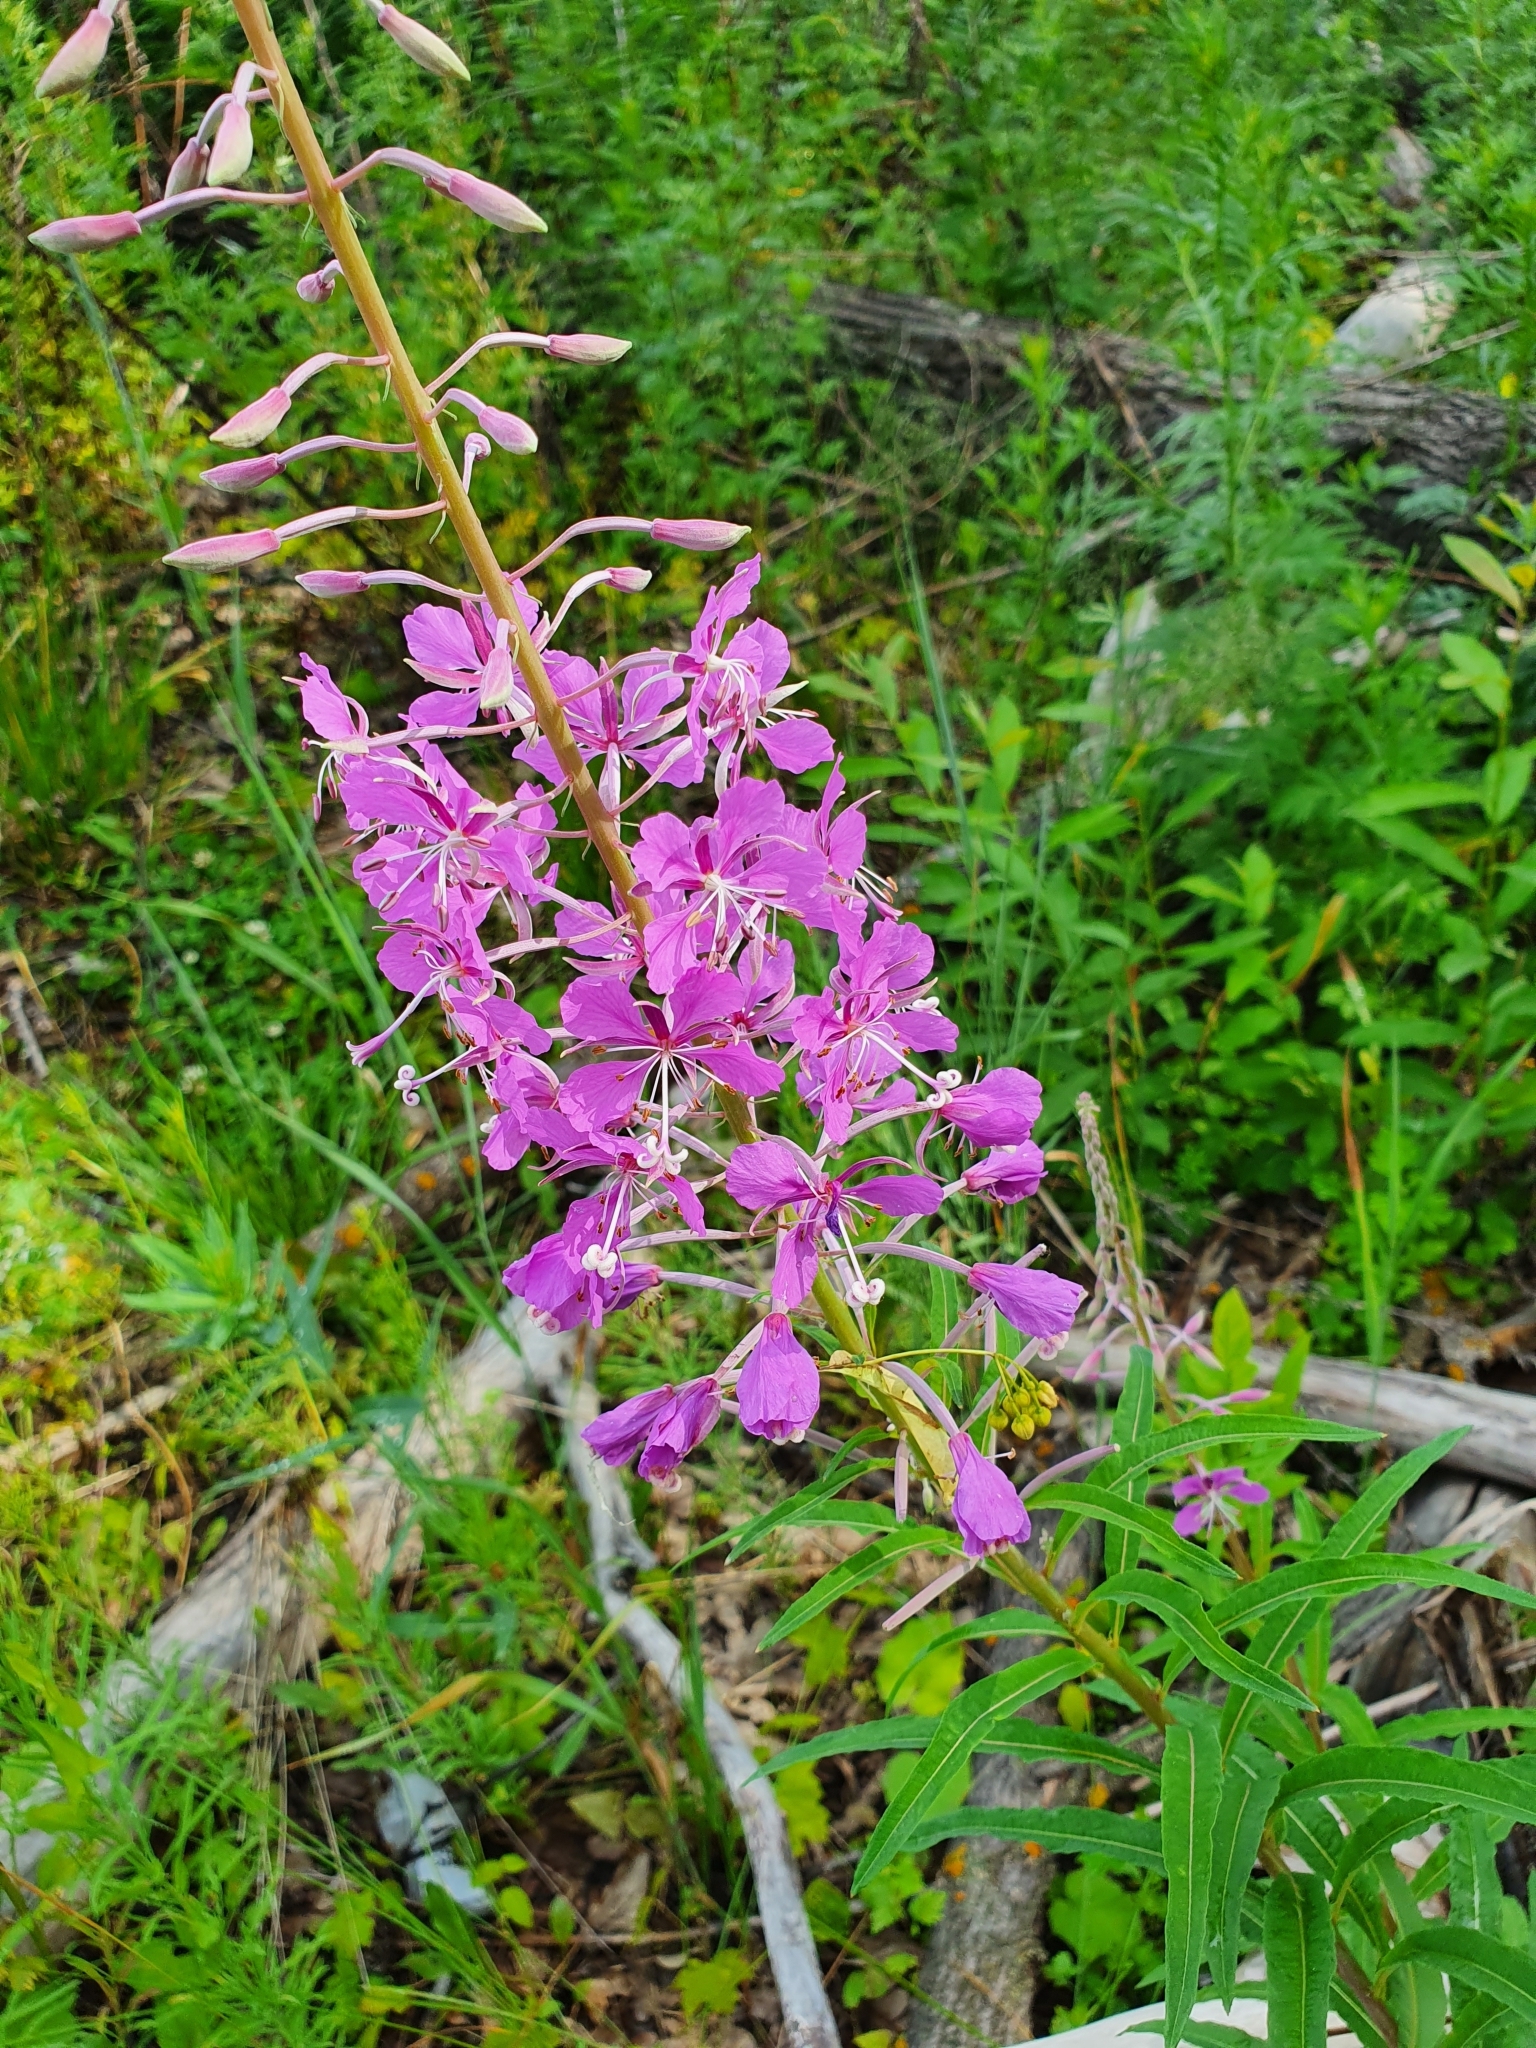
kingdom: Plantae
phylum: Tracheophyta
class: Magnoliopsida
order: Myrtales
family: Onagraceae
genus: Chamaenerion
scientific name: Chamaenerion angustifolium
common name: Fireweed
